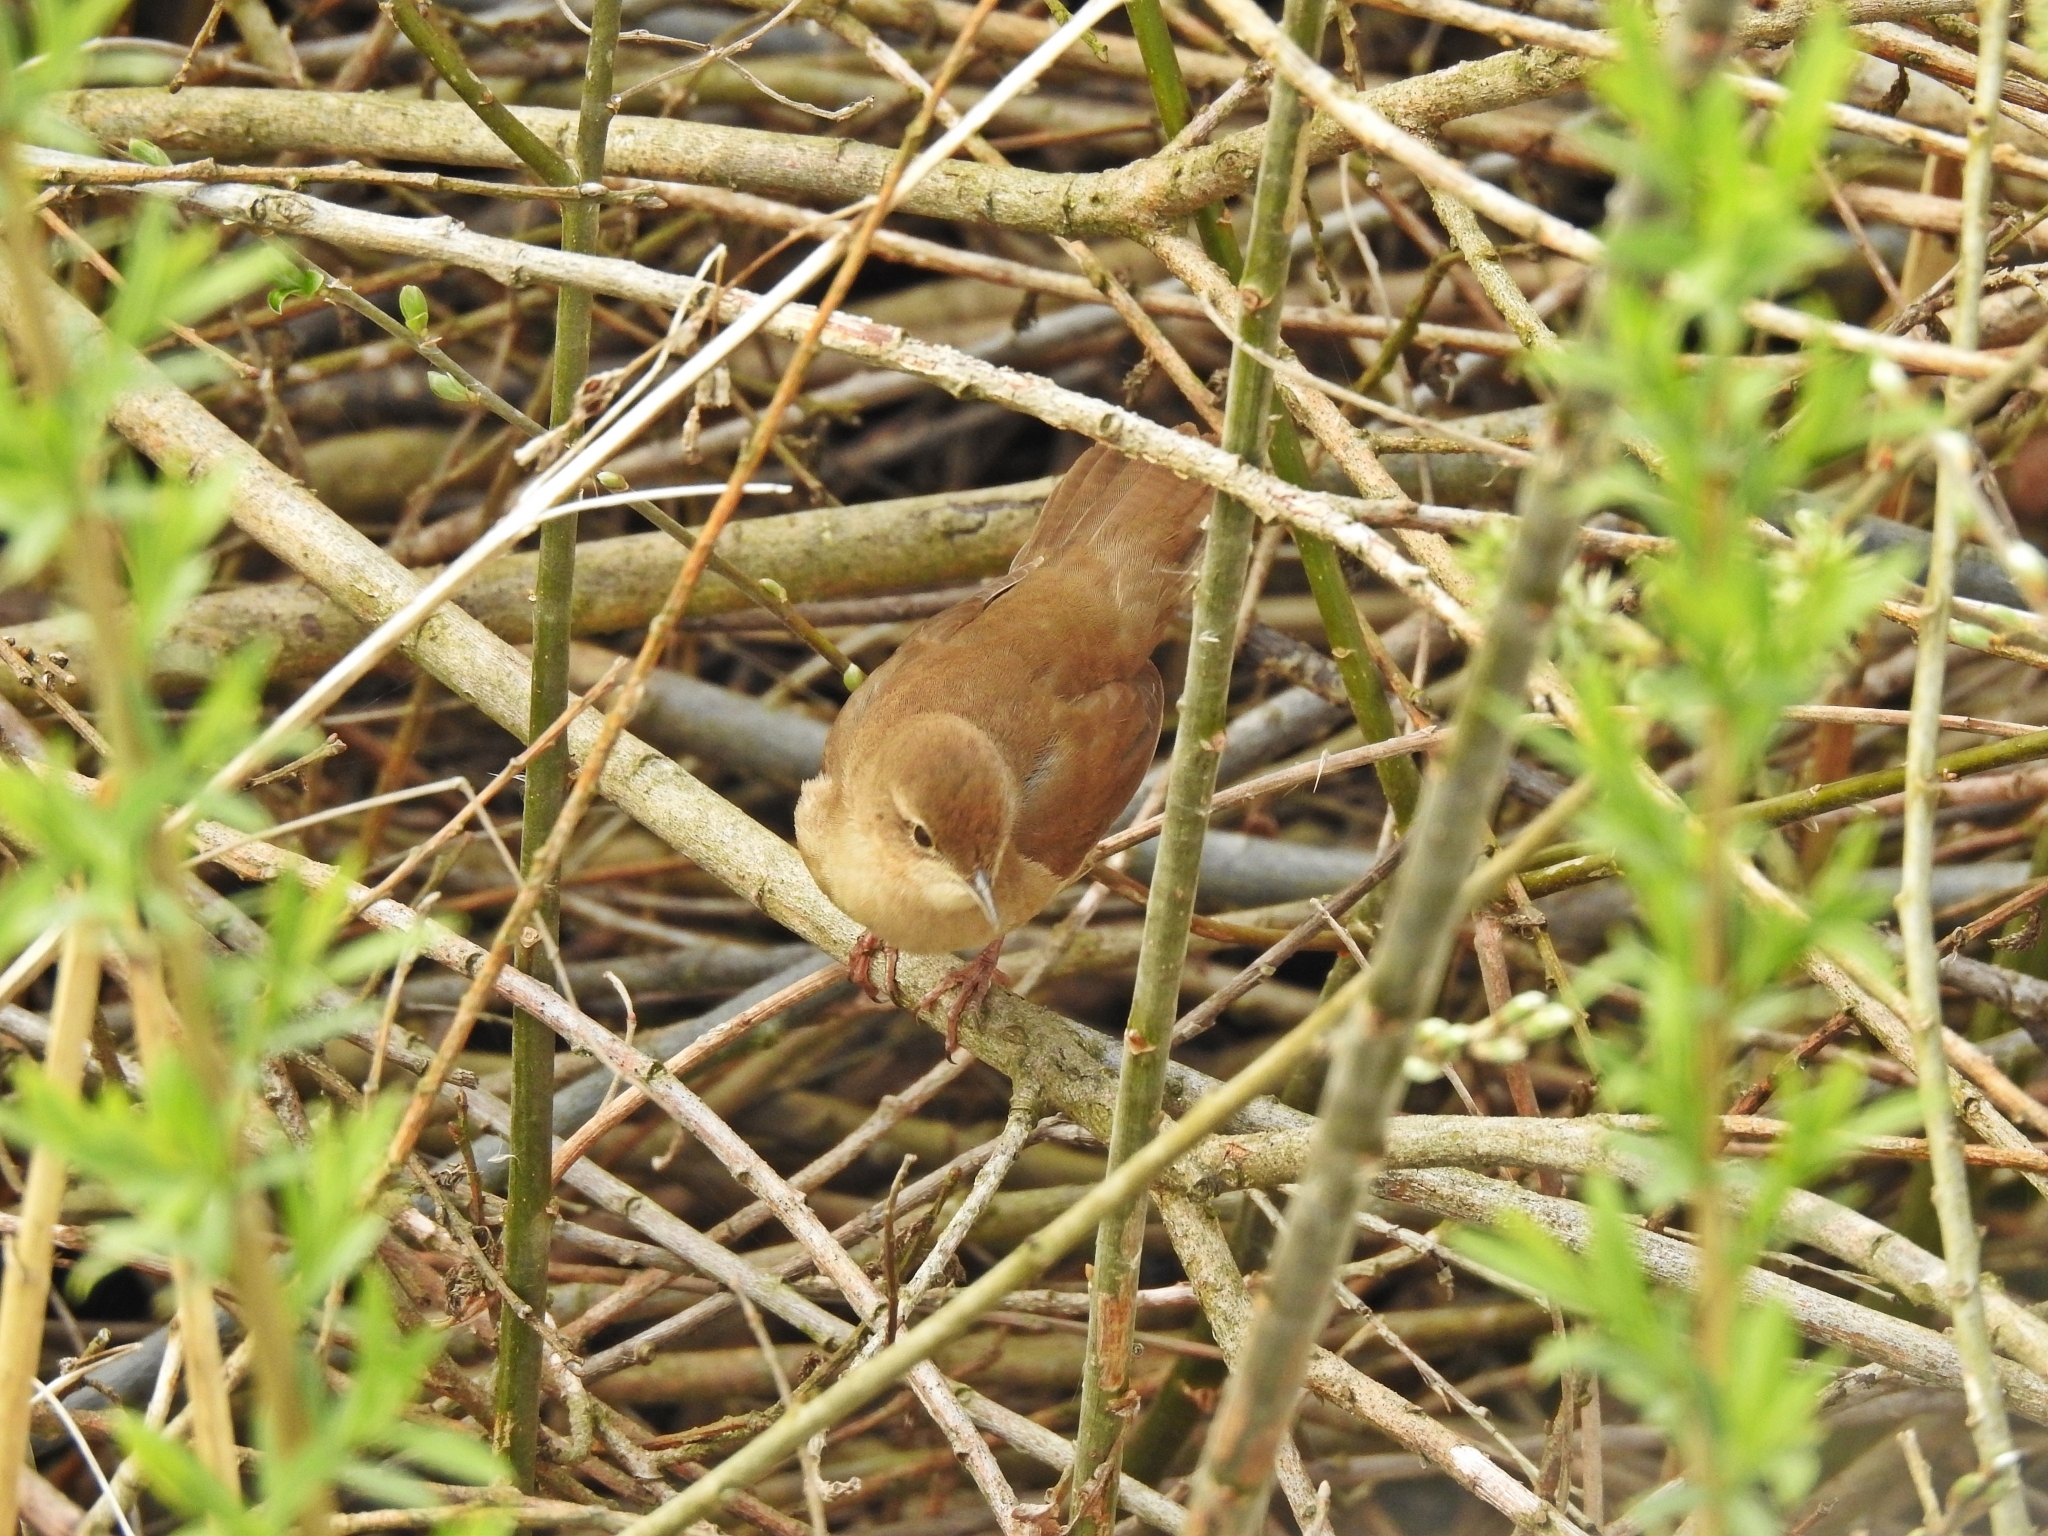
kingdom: Animalia
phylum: Chordata
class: Aves
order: Passeriformes
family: Locustellidae
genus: Locustella
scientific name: Locustella luscinioides
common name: Savi's warbler
